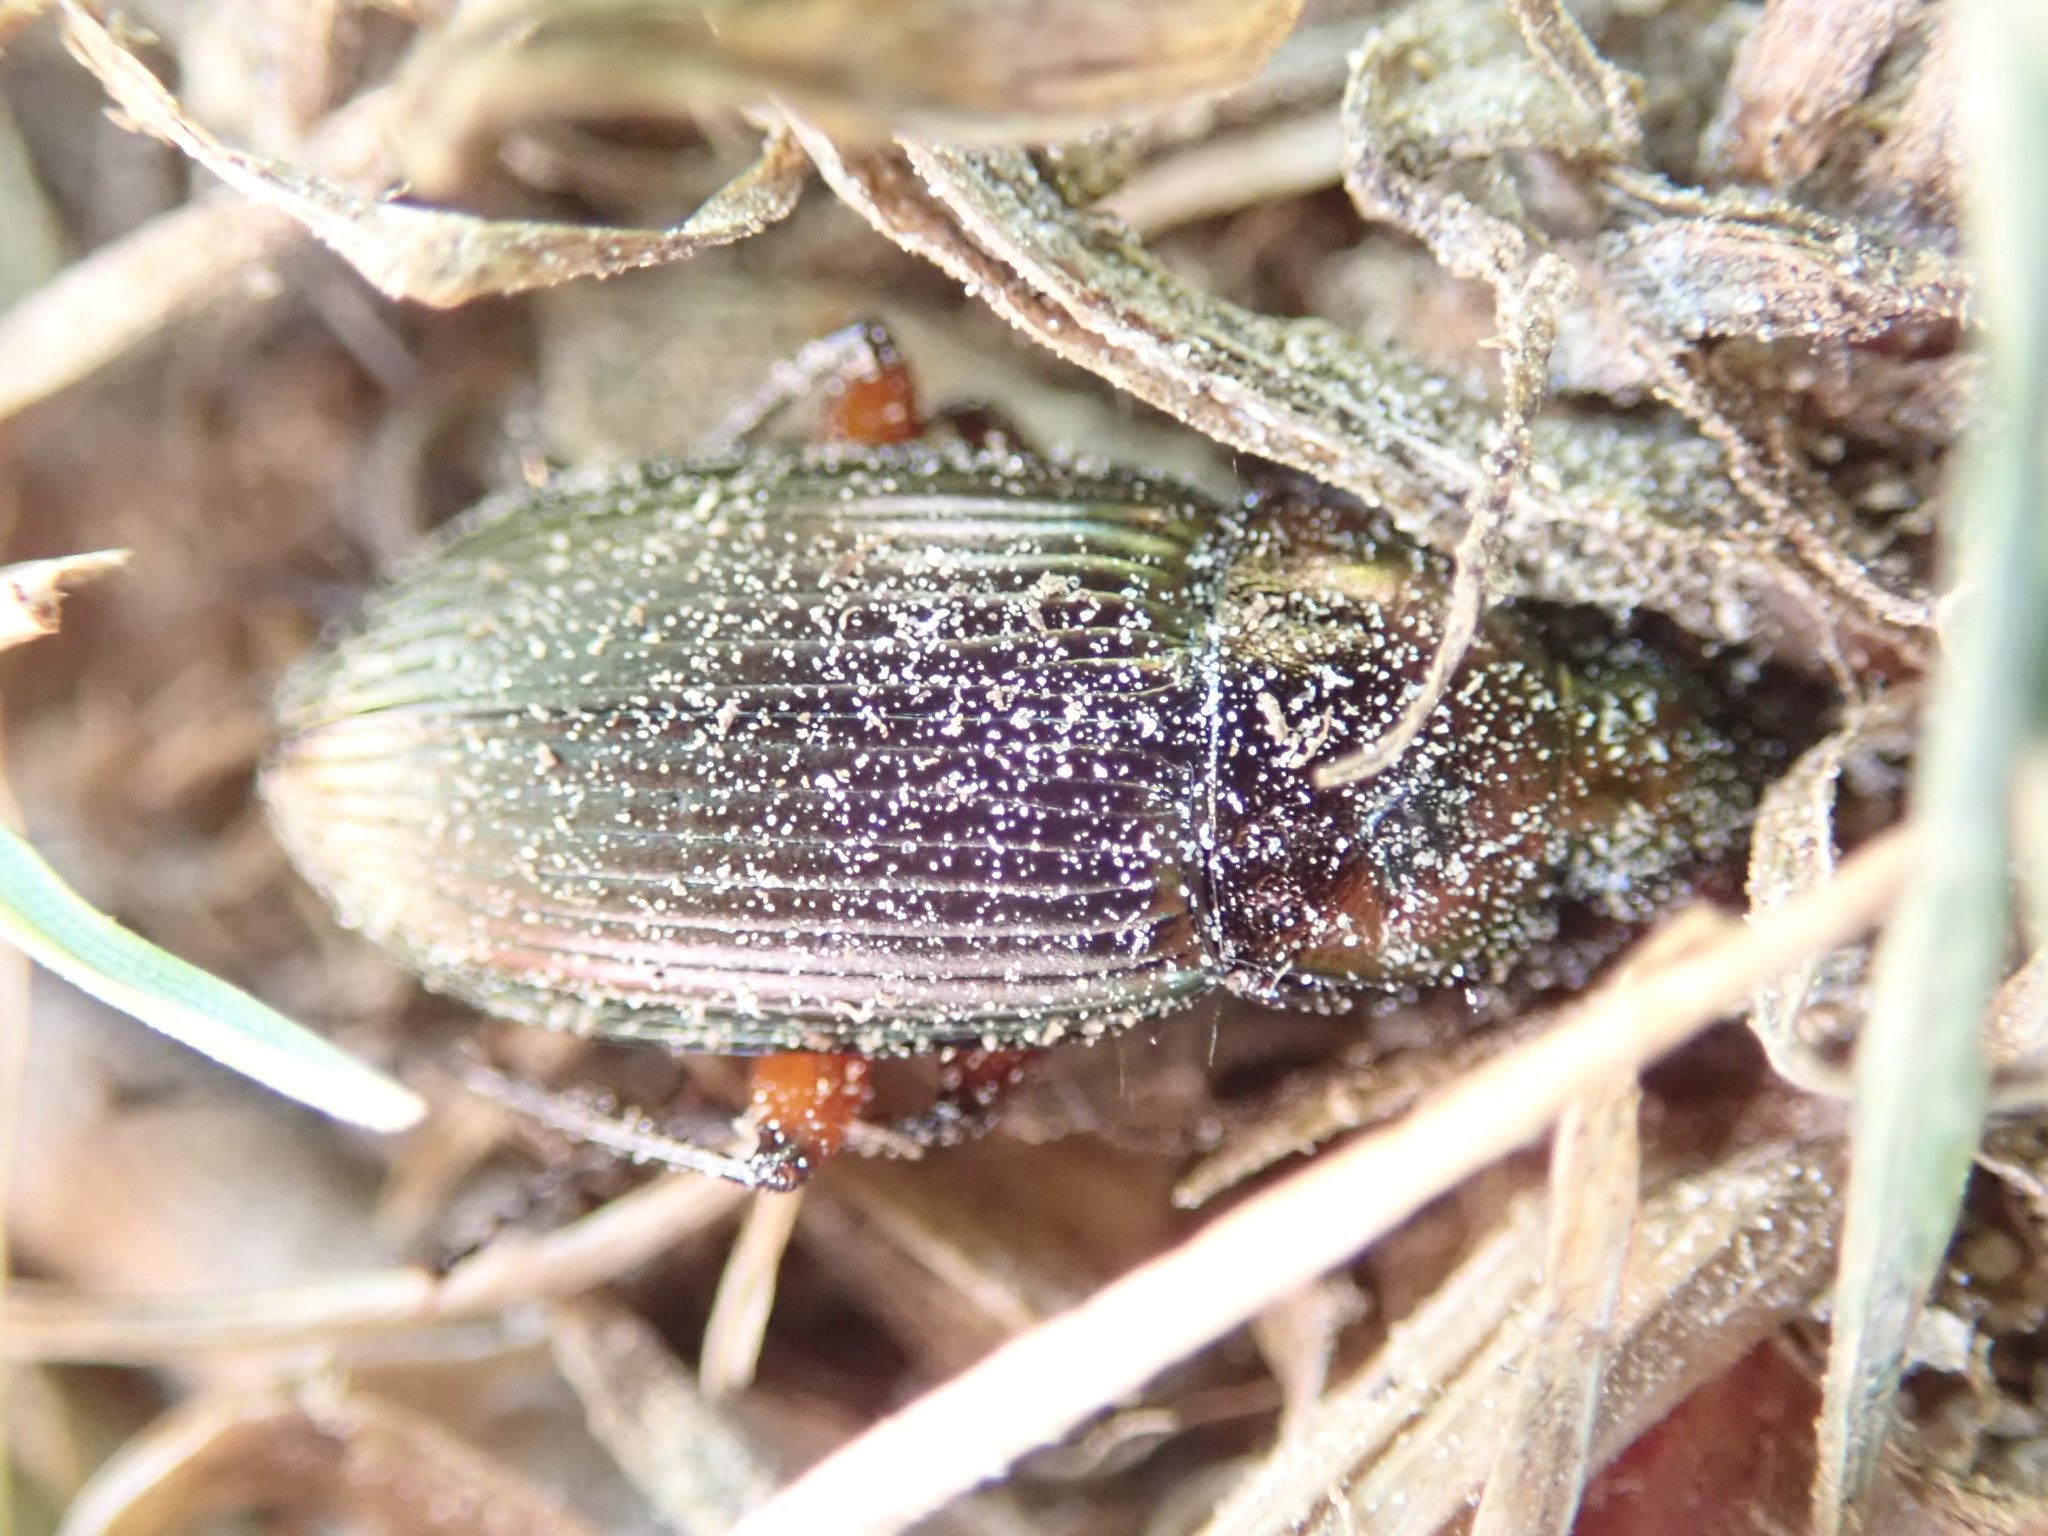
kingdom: Animalia
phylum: Arthropoda
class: Insecta
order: Coleoptera
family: Carabidae
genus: Poecilus
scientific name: Poecilus cupreus
